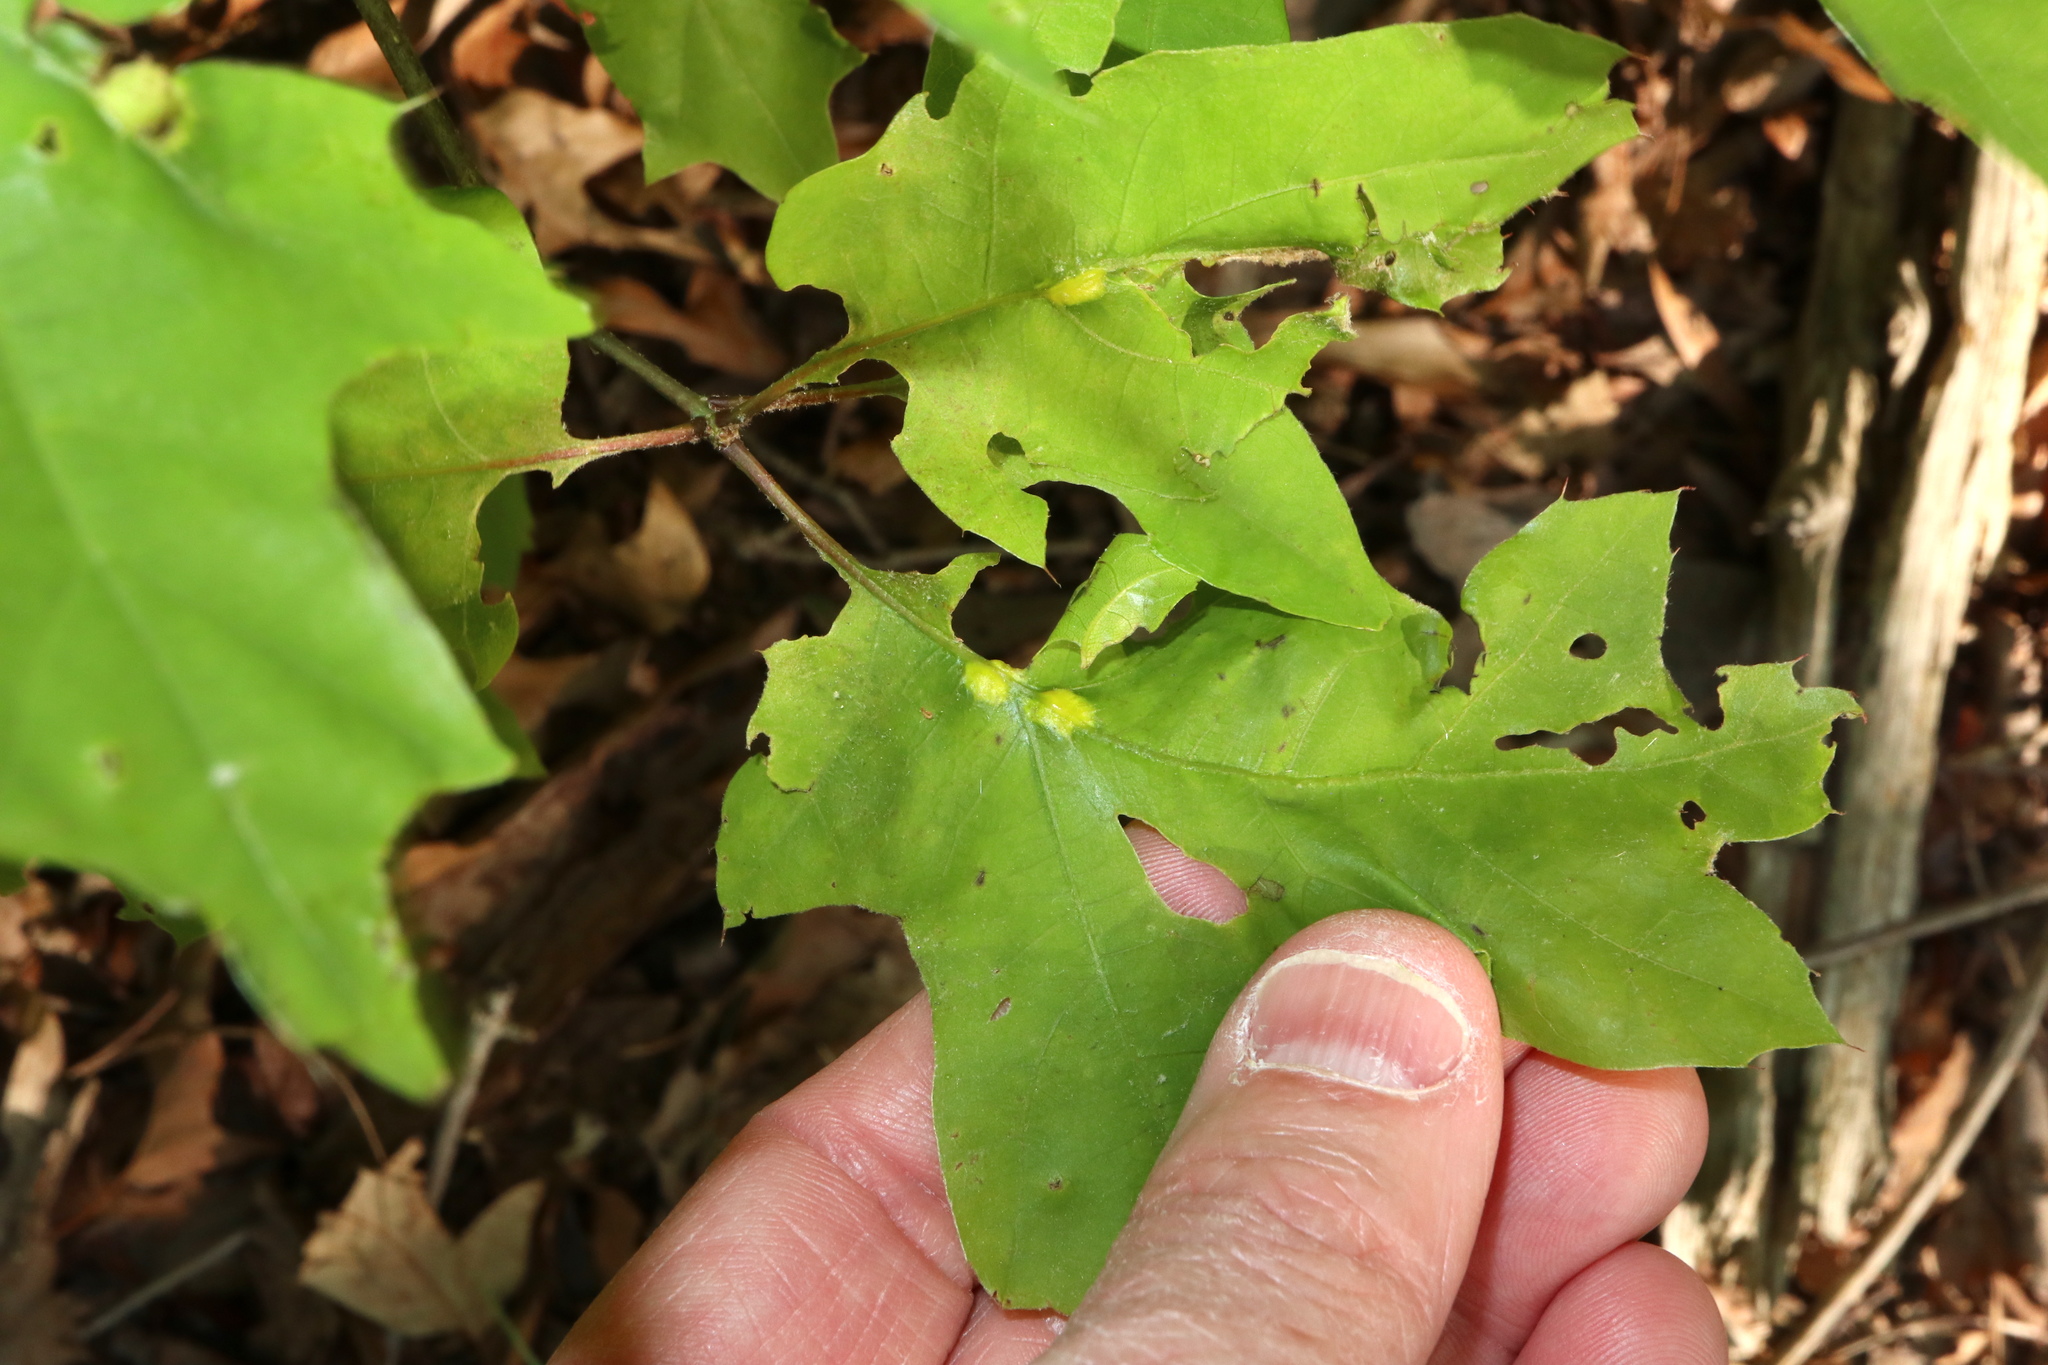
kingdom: Animalia
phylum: Arthropoda
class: Insecta
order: Hymenoptera
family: Cynipidae
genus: Melikaiella
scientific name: Melikaiella tumifica
